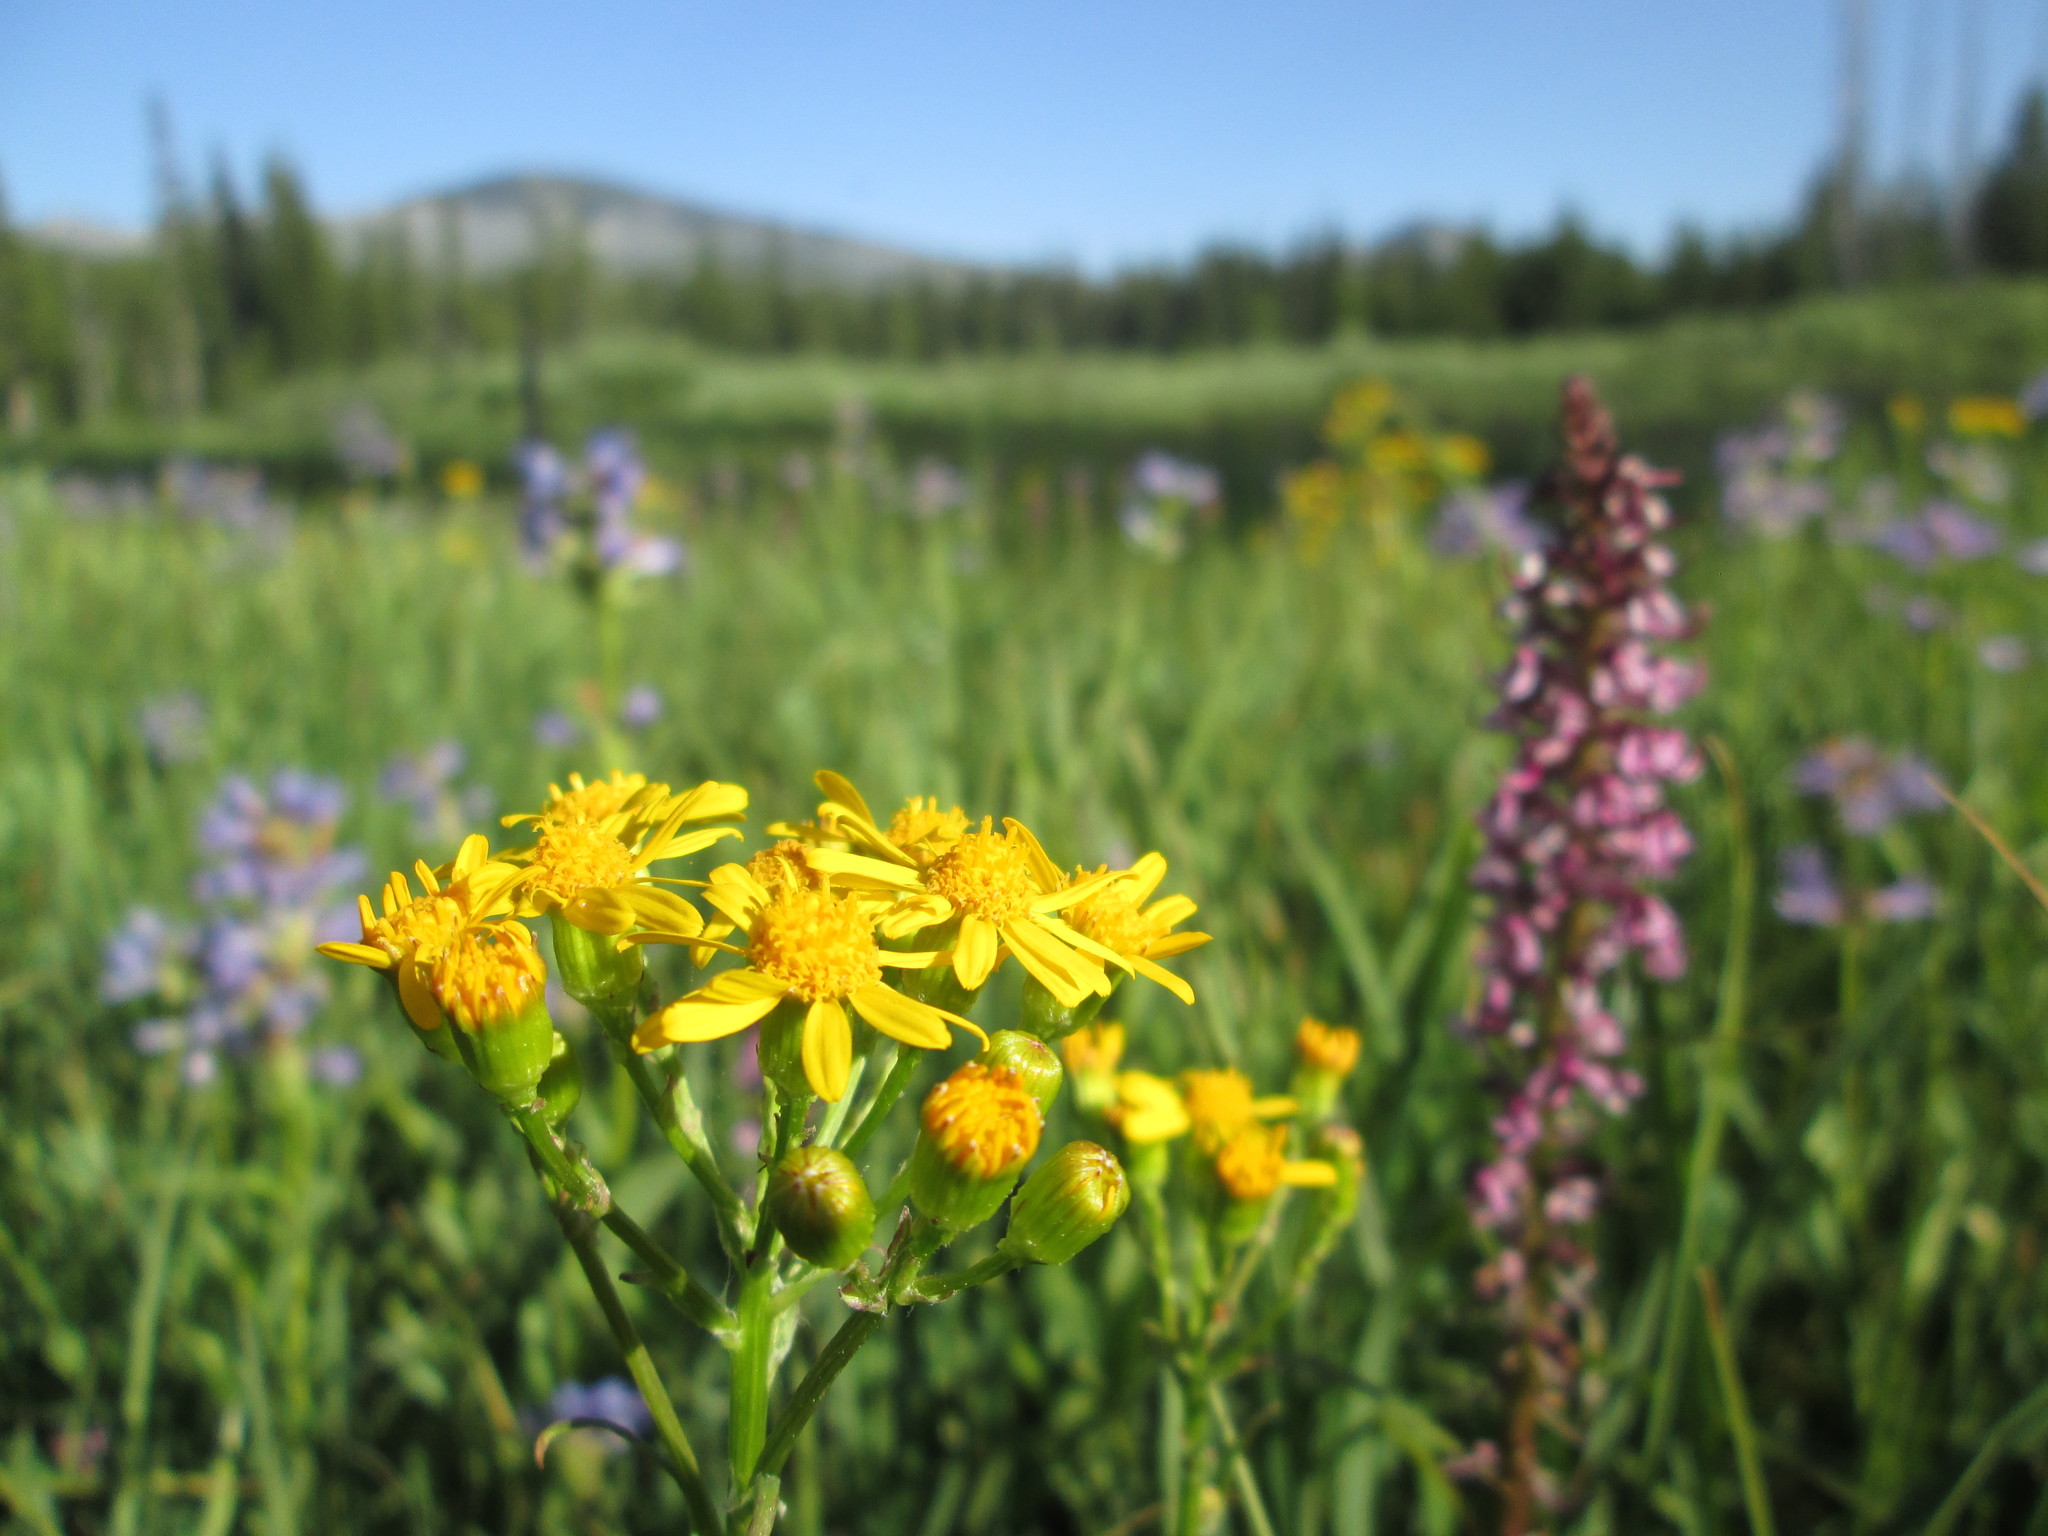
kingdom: Plantae
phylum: Tracheophyta
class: Magnoliopsida
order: Asterales
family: Asteraceae
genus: Senecio
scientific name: Senecio integerrimus
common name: Gaugeplant
